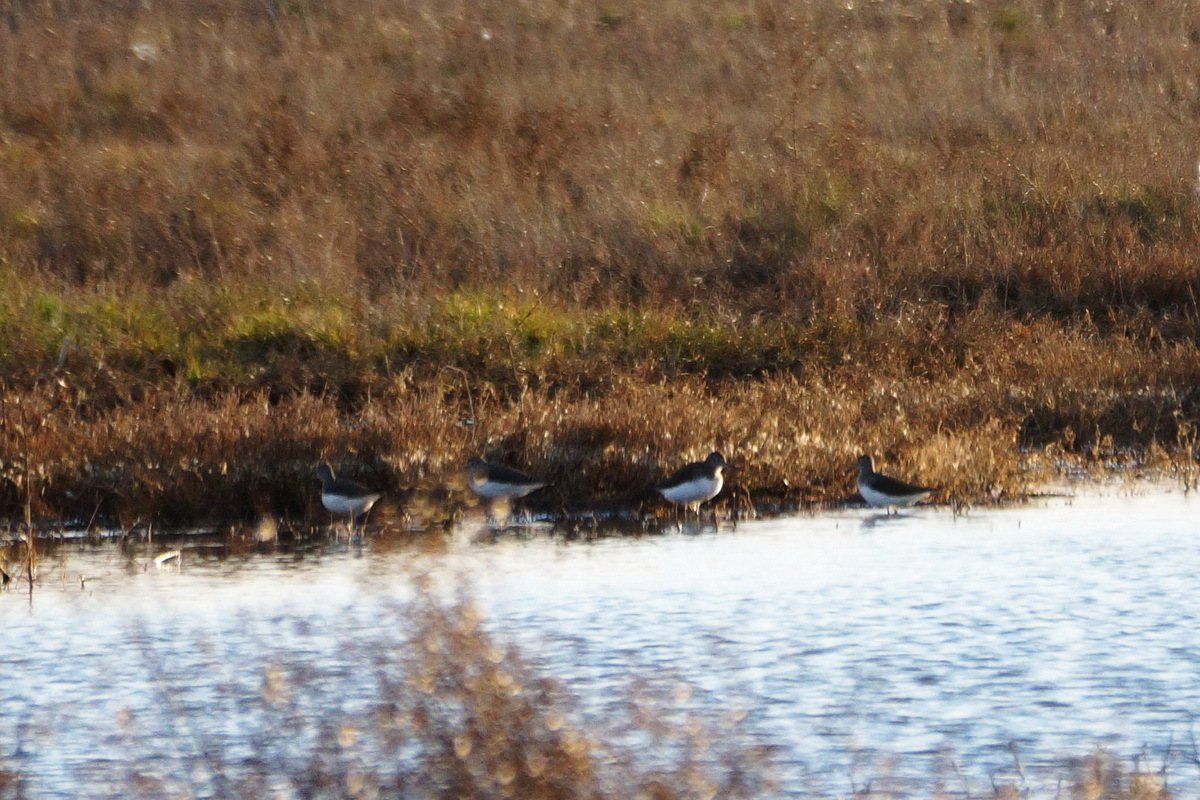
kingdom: Animalia
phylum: Chordata
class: Aves
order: Charadriiformes
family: Scolopacidae
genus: Tringa
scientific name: Tringa ochropus
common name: Green sandpiper
